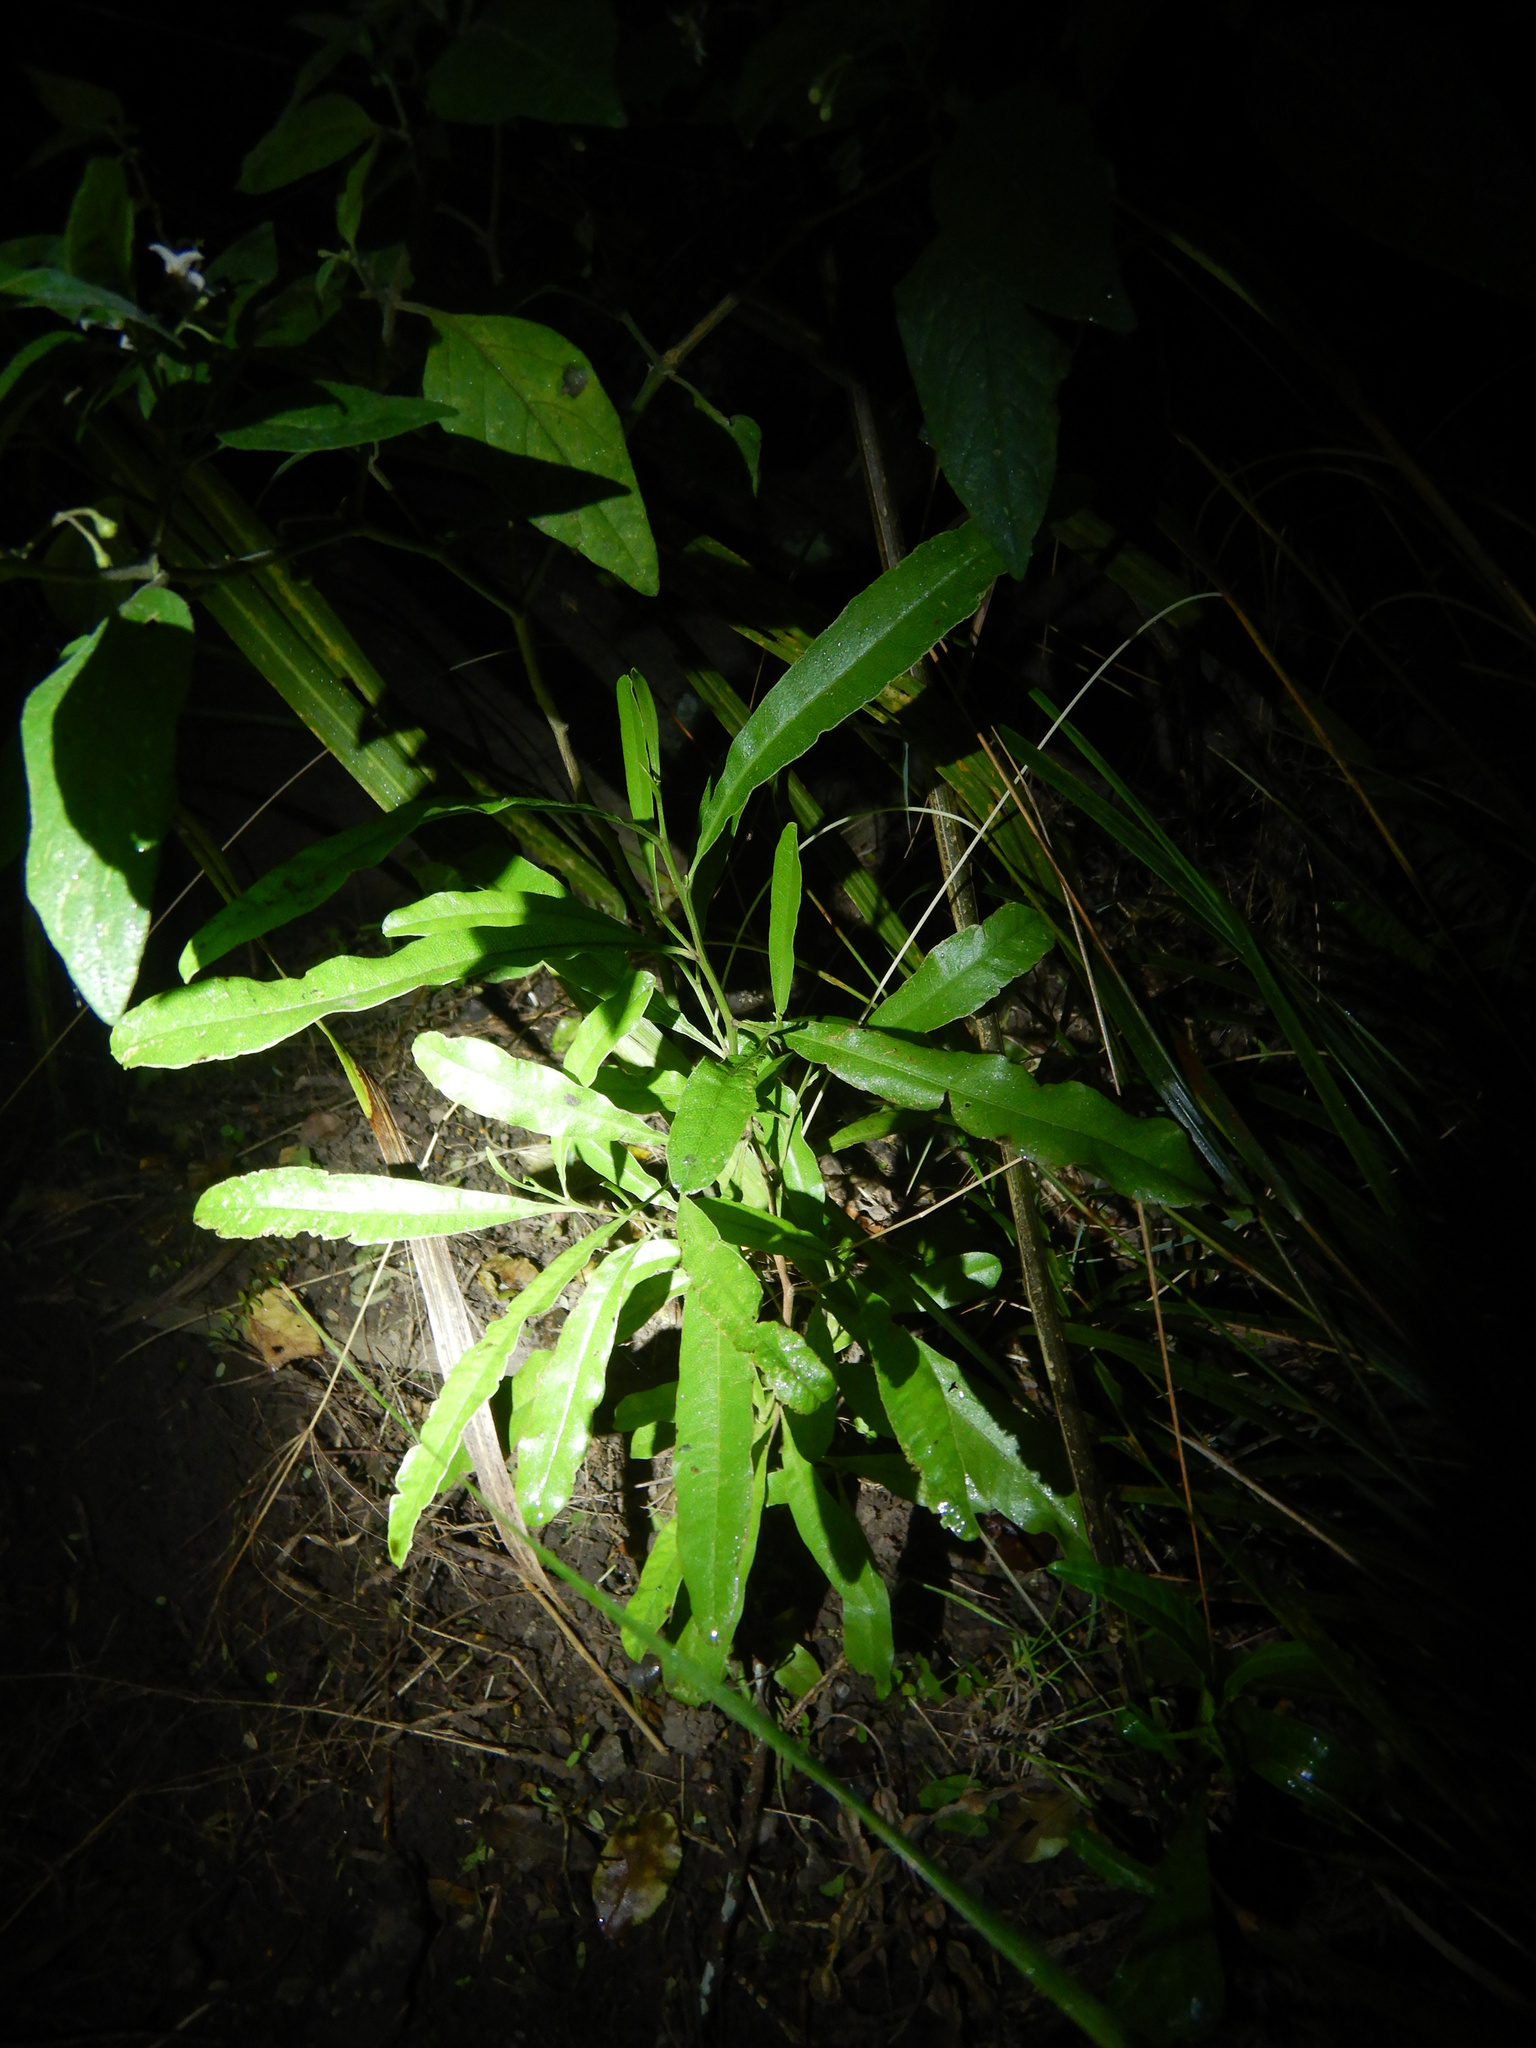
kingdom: Plantae
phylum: Tracheophyta
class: Magnoliopsida
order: Sapindales
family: Sapindaceae
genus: Dodonaea
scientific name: Dodonaea viscosa
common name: Hopbush
